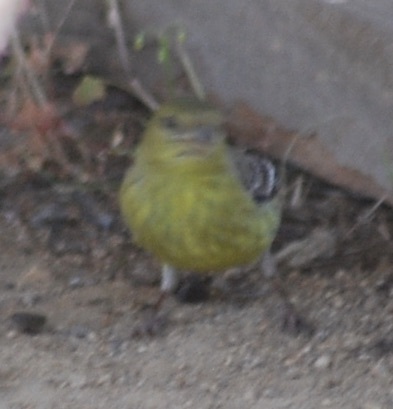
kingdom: Animalia
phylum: Chordata
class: Aves
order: Passeriformes
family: Fringillidae
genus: Spinus
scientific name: Spinus psaltria
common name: Lesser goldfinch
